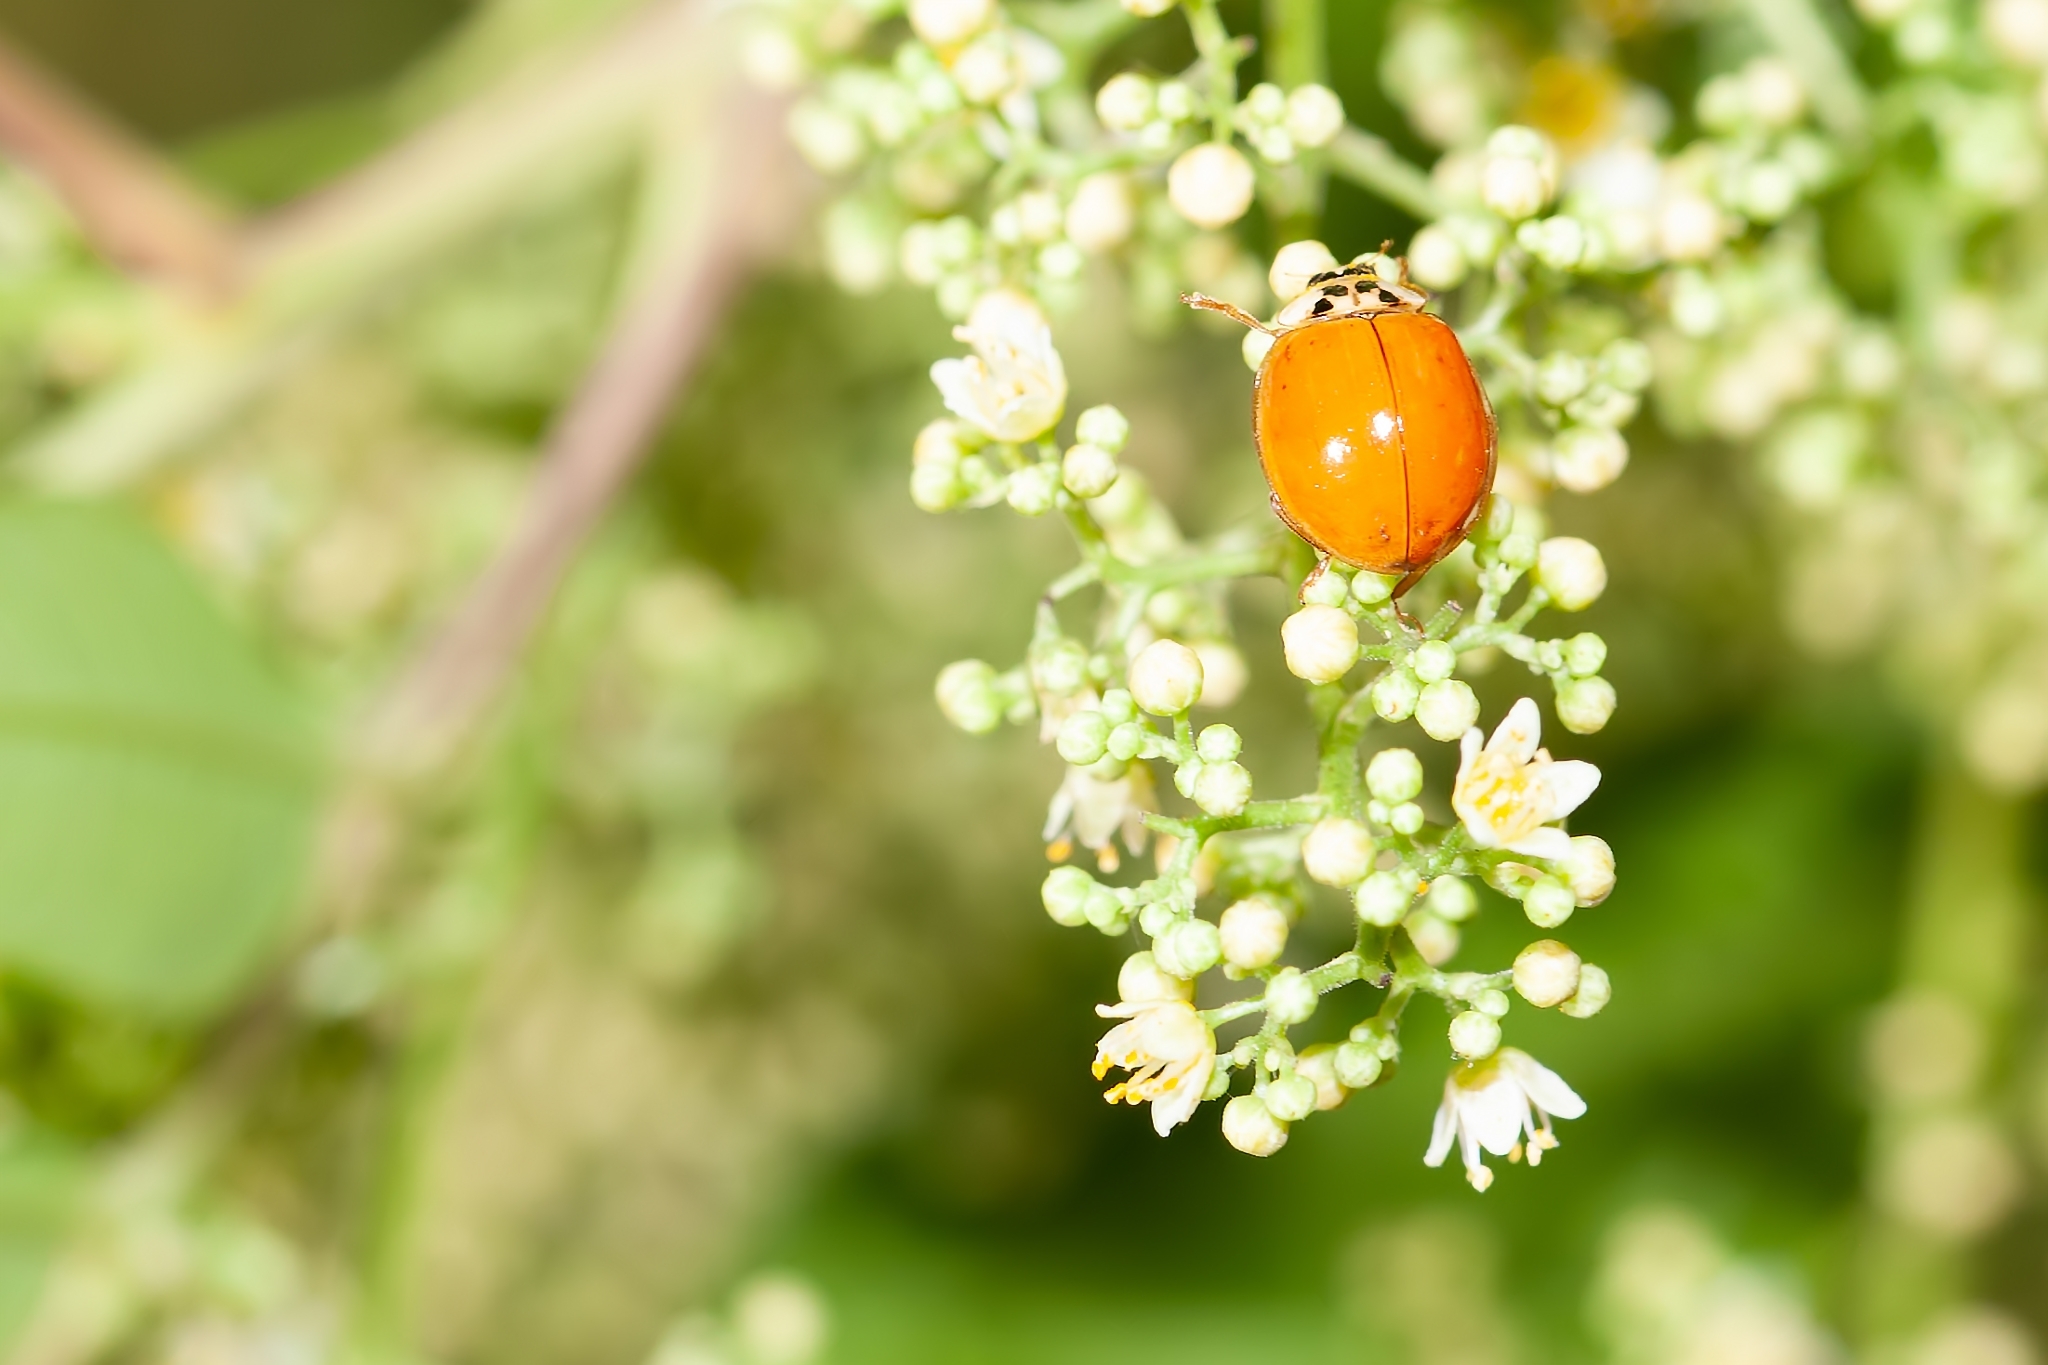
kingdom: Animalia
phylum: Arthropoda
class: Insecta
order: Coleoptera
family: Coccinellidae
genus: Harmonia
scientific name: Harmonia axyridis
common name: Harlequin ladybird
